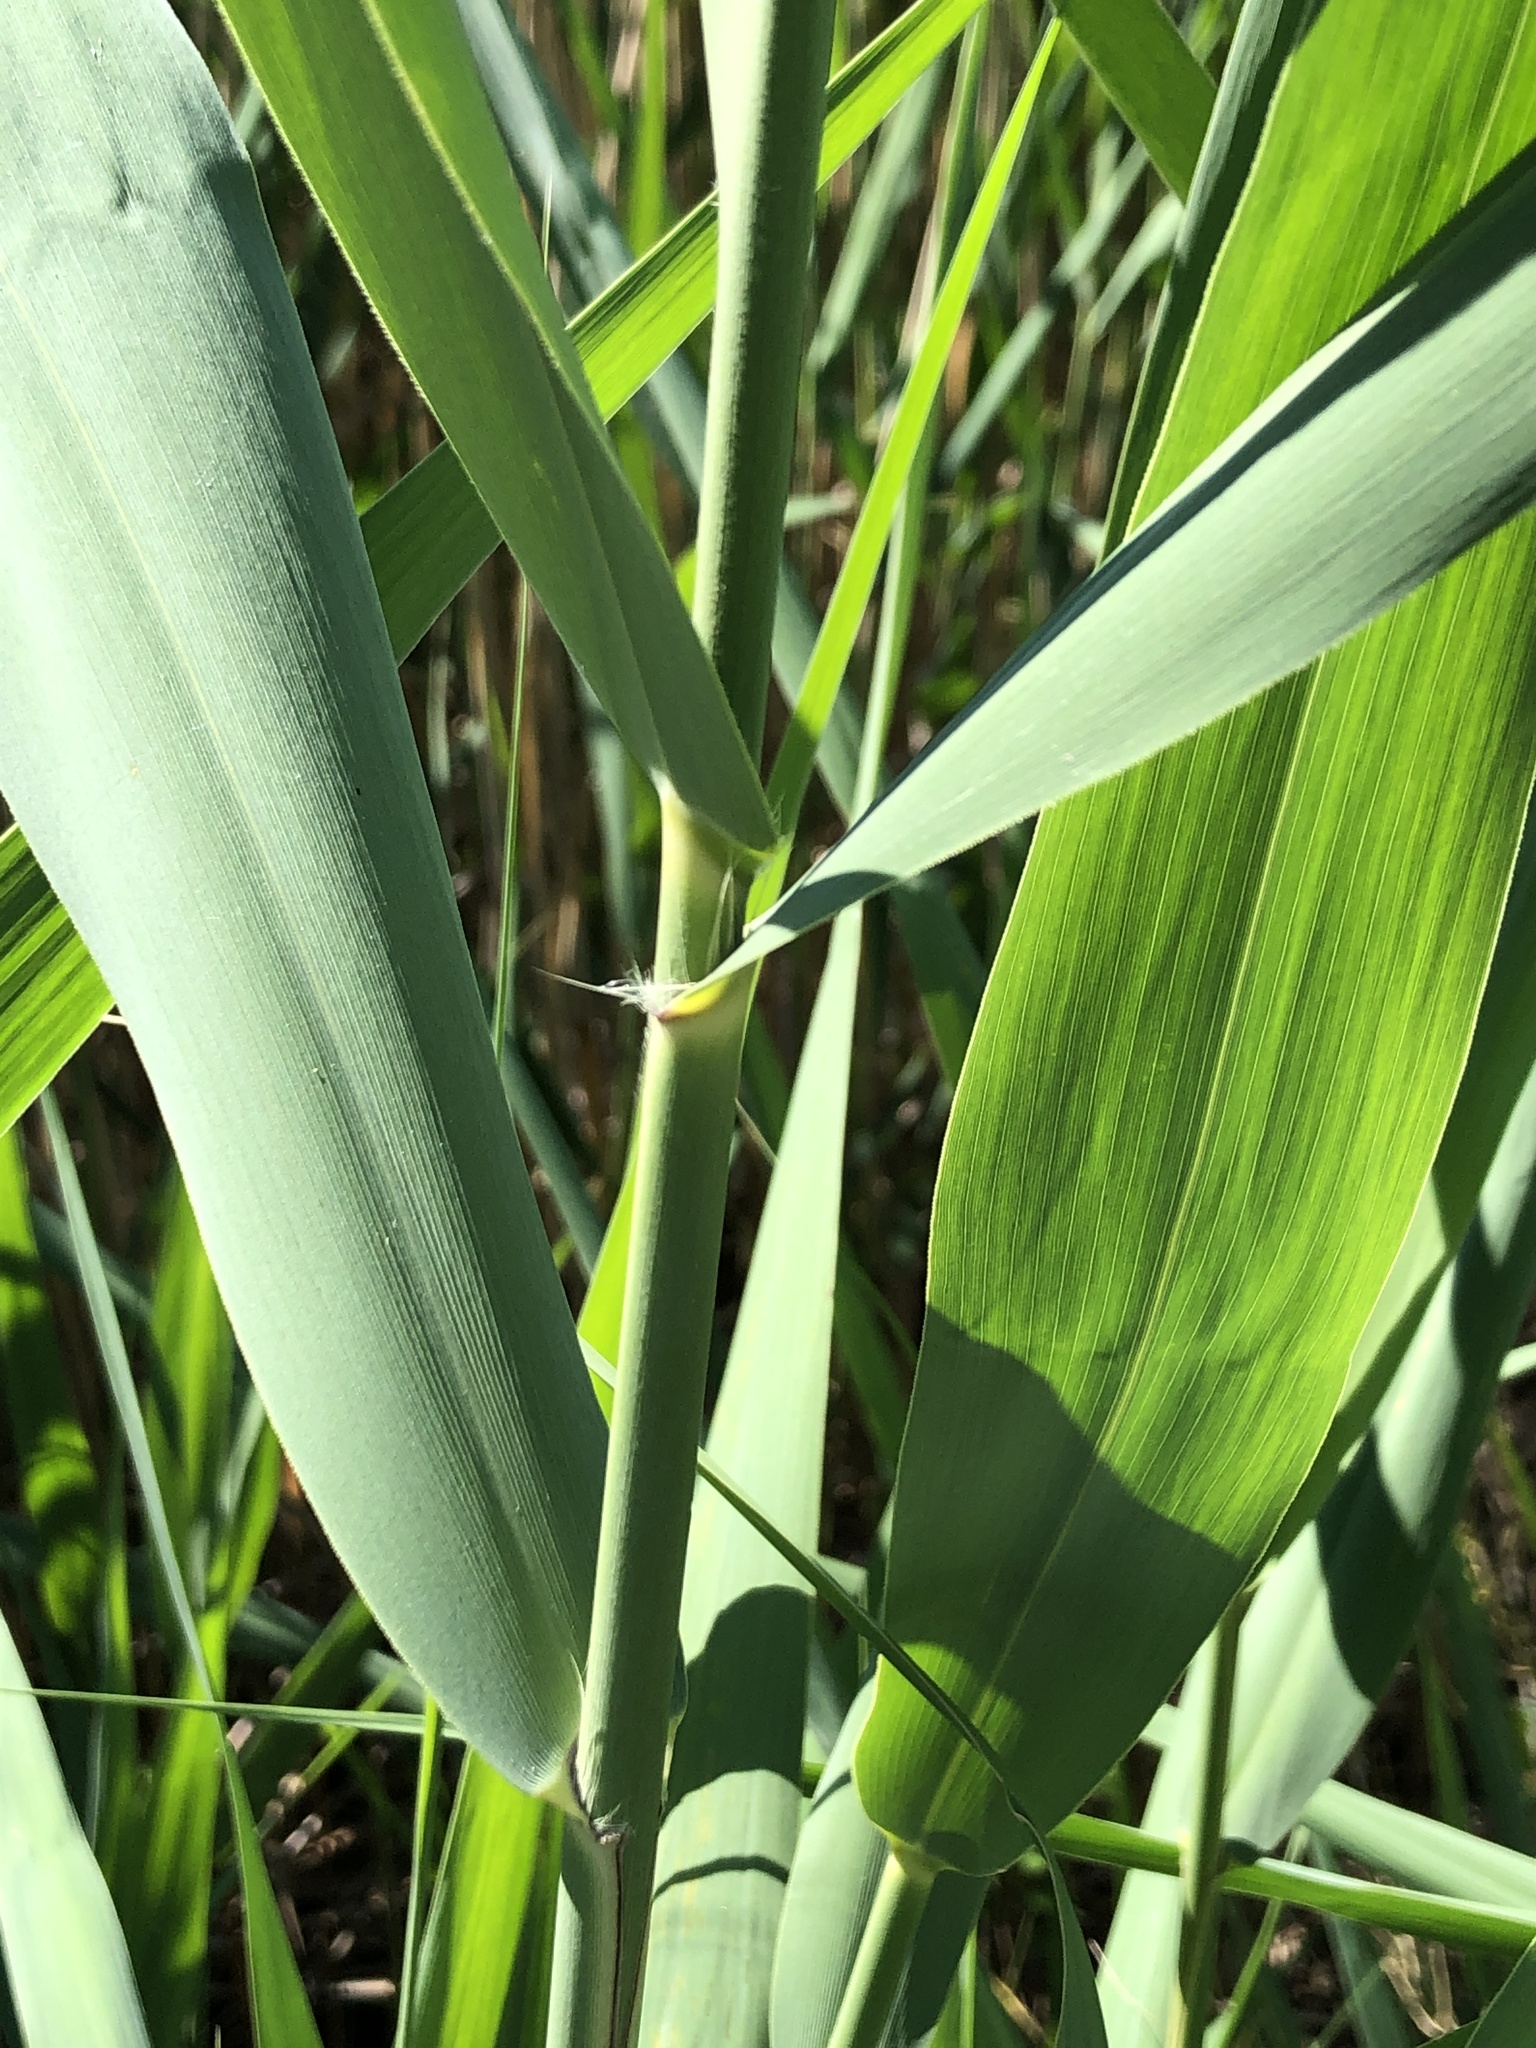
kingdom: Plantae
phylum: Tracheophyta
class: Liliopsida
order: Poales
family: Poaceae
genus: Phragmites
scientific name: Phragmites australis
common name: Common reed
